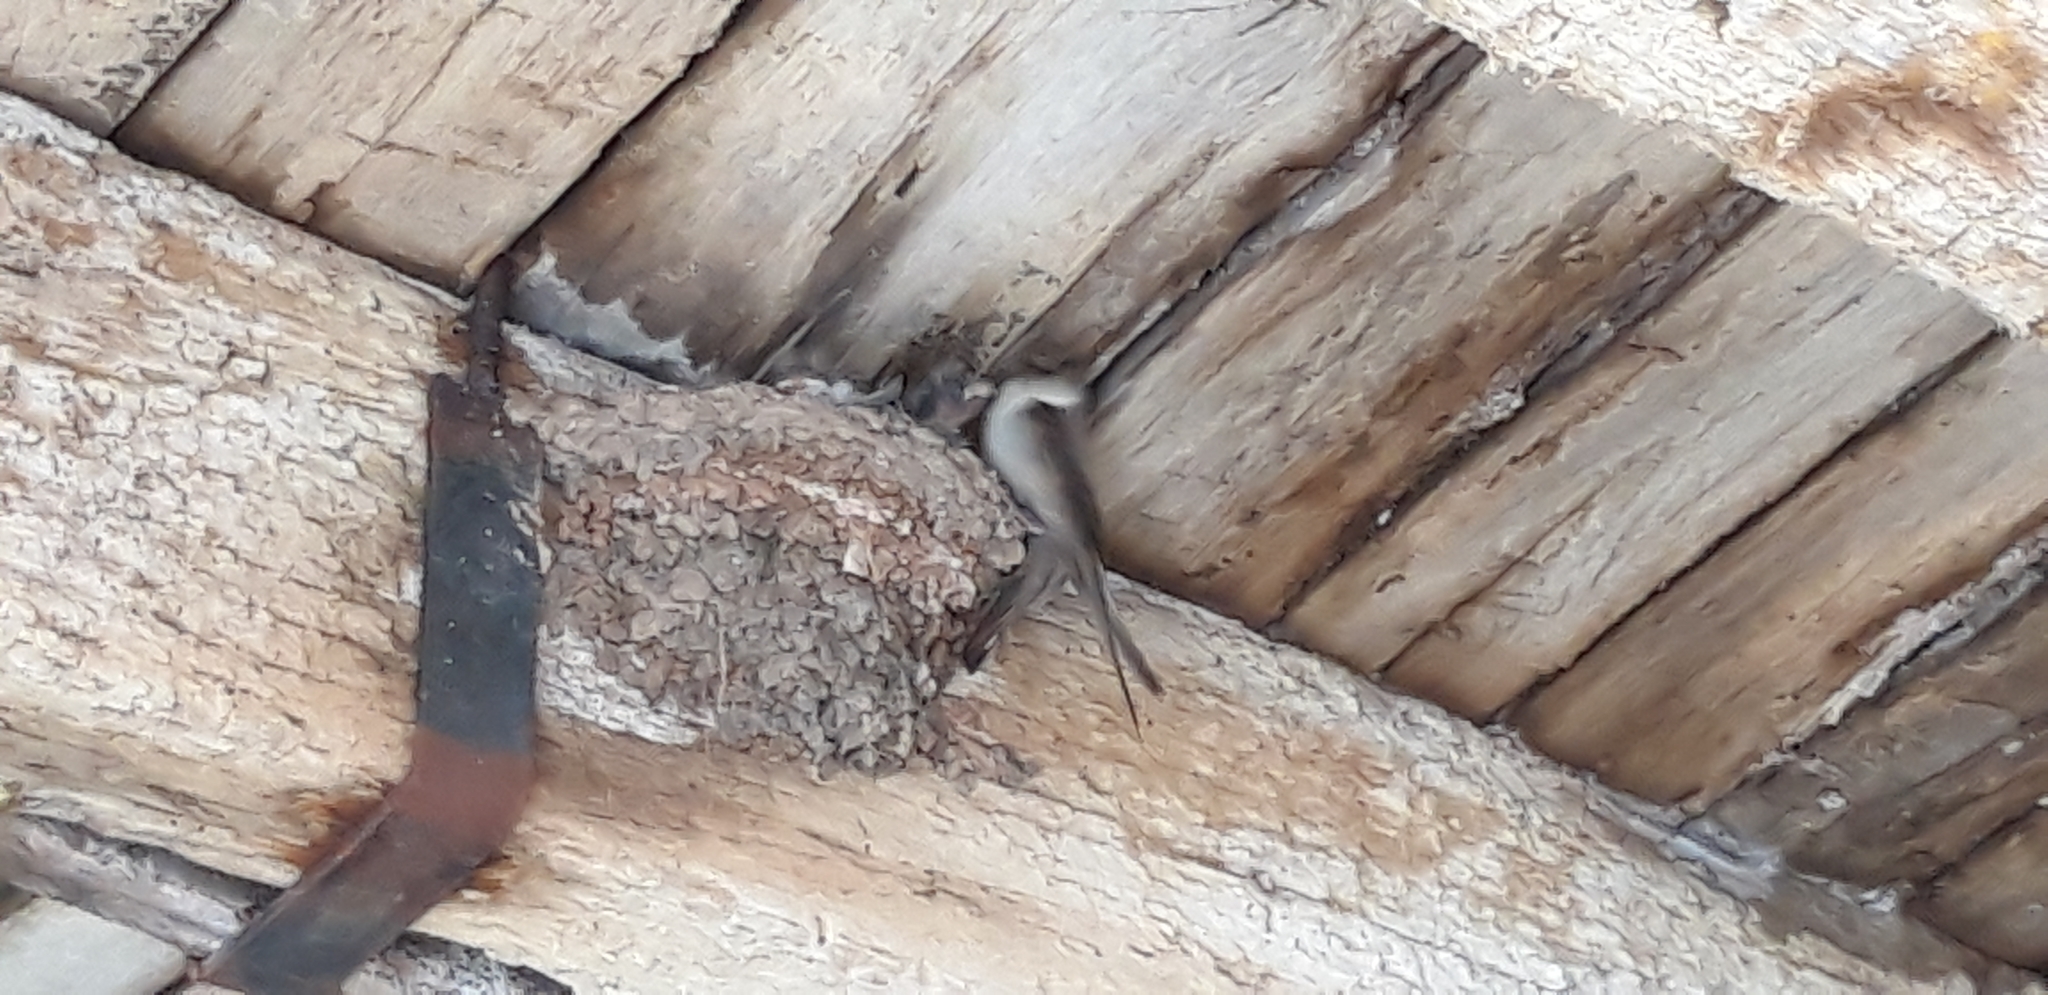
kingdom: Animalia
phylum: Chordata
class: Aves
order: Passeriformes
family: Hirundinidae
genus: Ptyonoprogne
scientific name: Ptyonoprogne rupestris
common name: Eurasian crag martin
